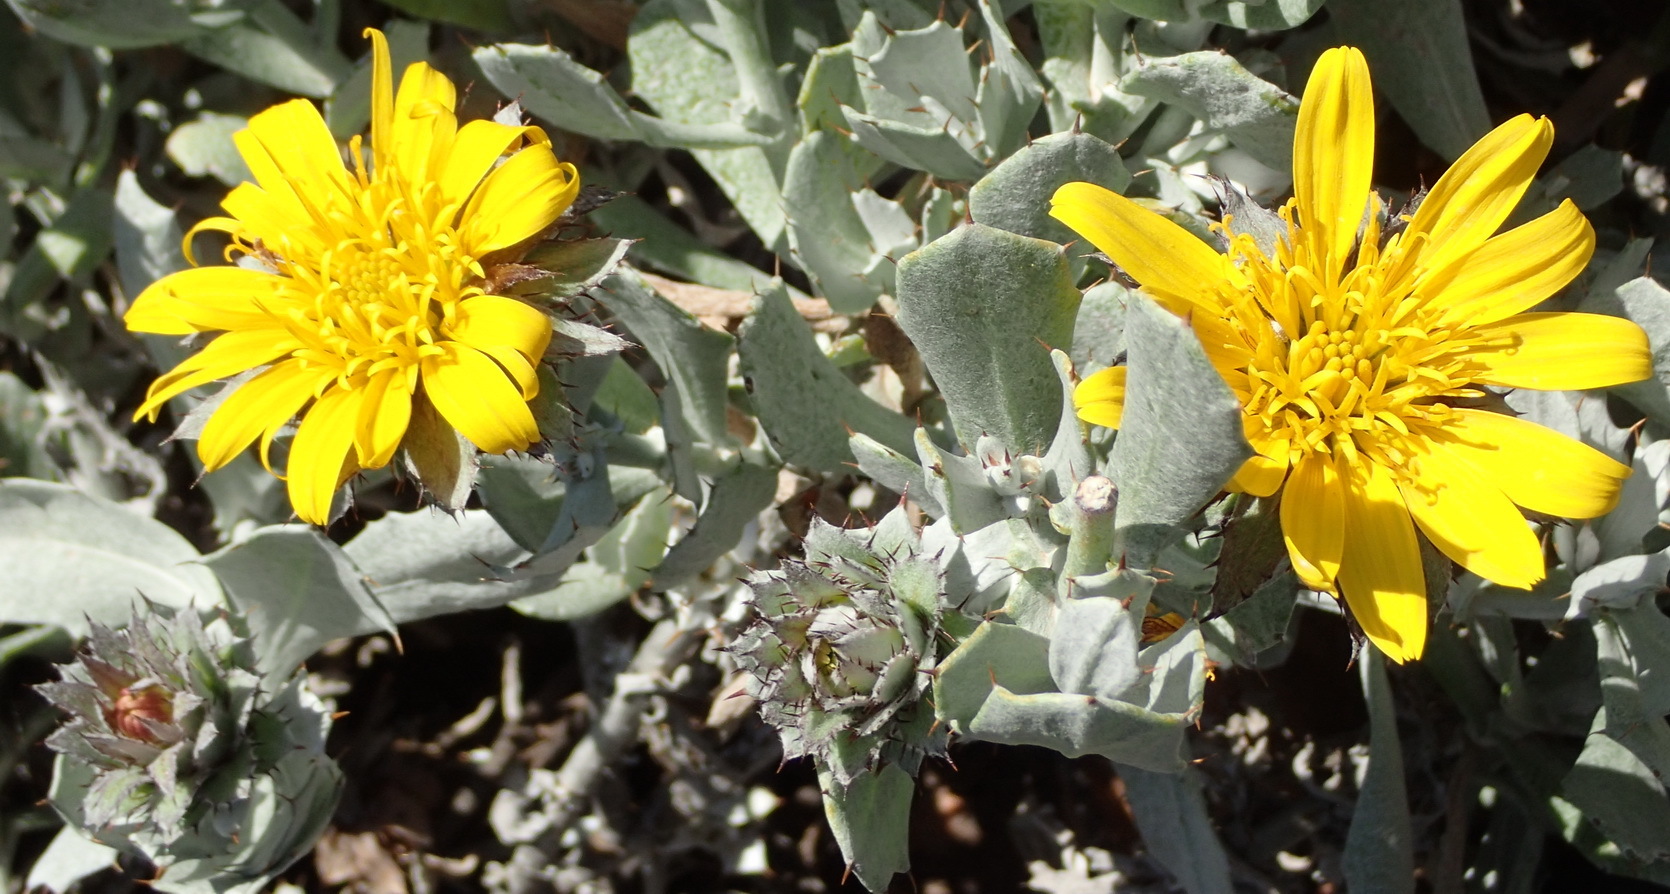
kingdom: Plantae
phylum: Tracheophyta
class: Magnoliopsida
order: Asterales
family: Asteraceae
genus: Berkheya
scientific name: Berkheya cuneata
